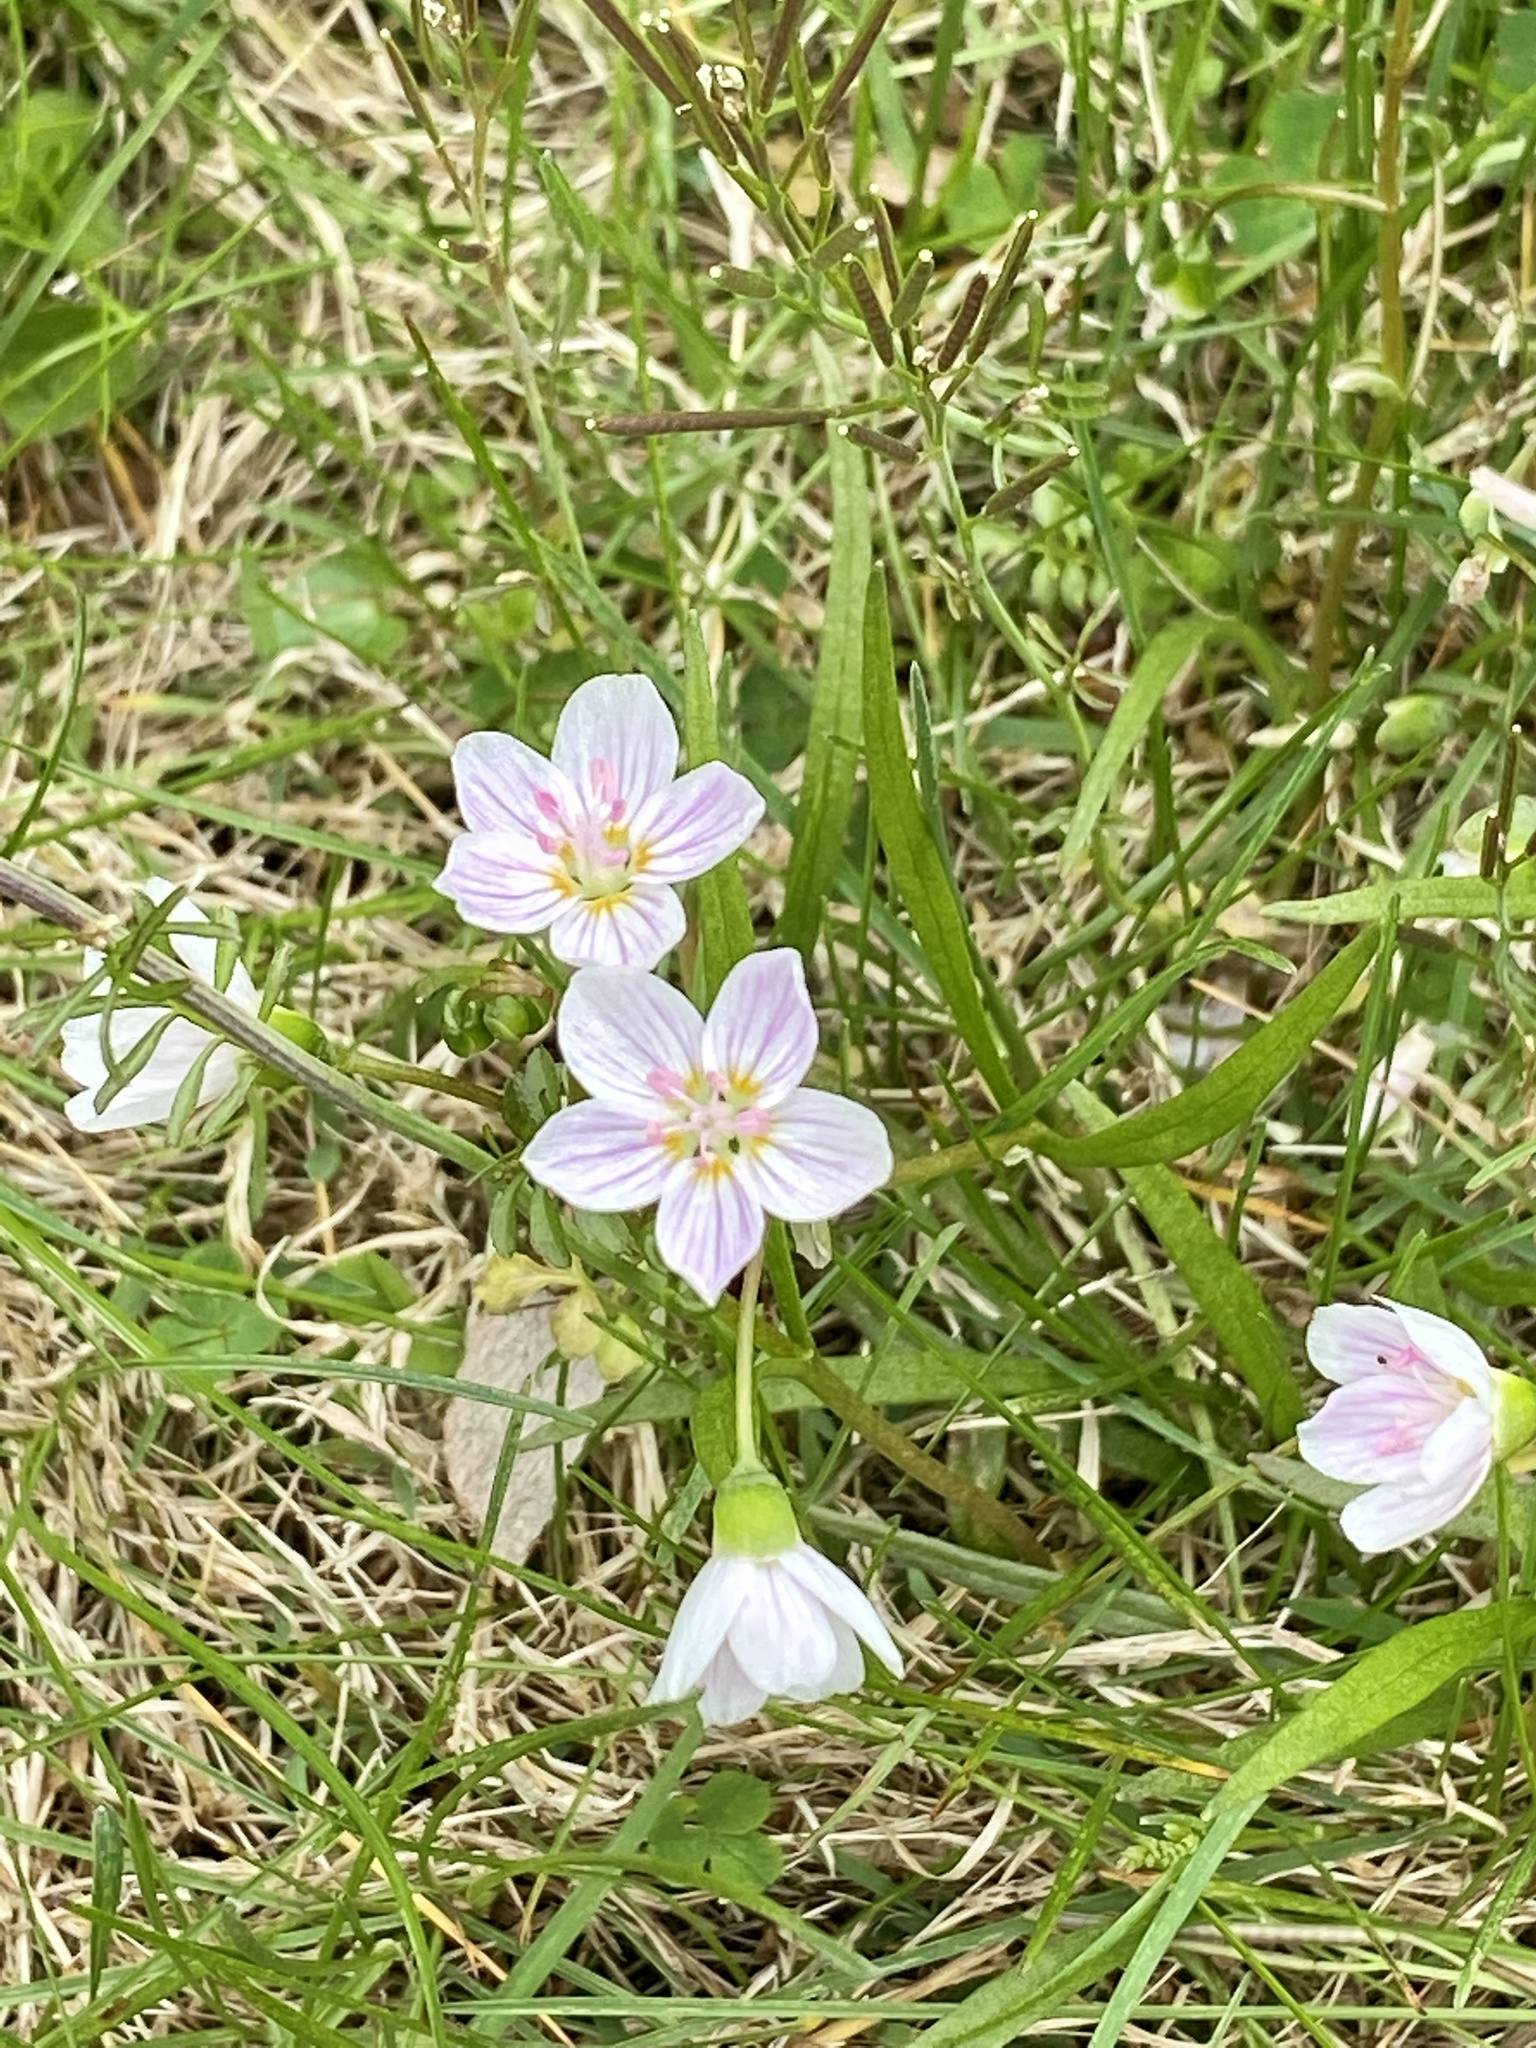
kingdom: Plantae
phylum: Tracheophyta
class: Magnoliopsida
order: Caryophyllales
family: Montiaceae
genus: Claytonia
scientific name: Claytonia virginica
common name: Virginia springbeauty
